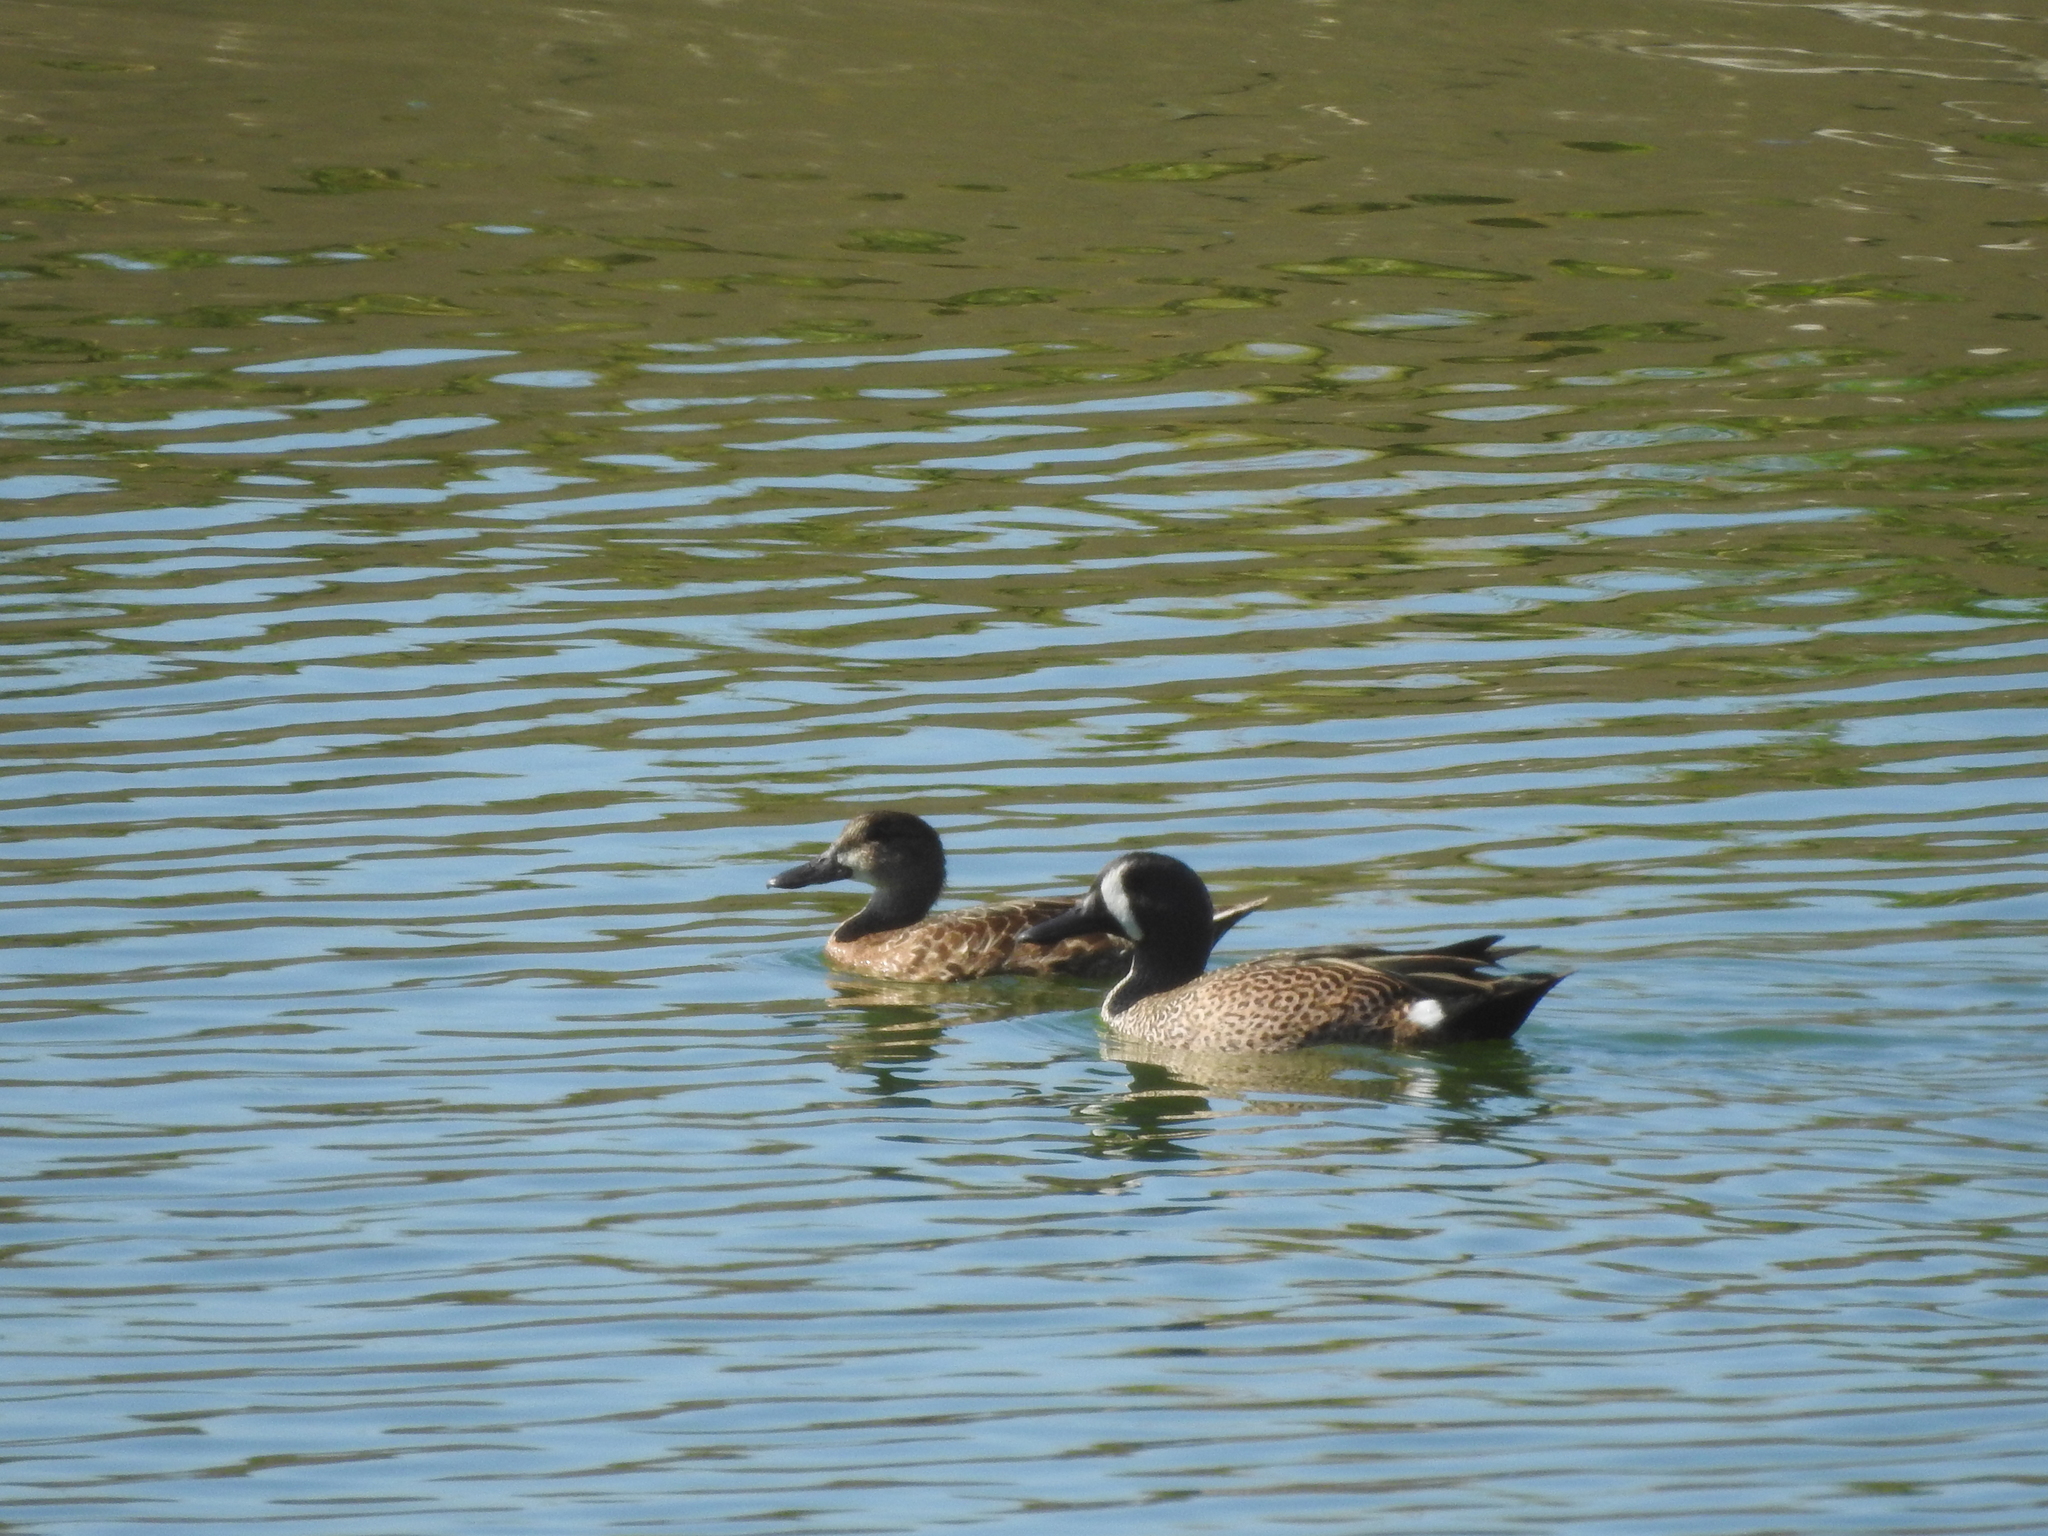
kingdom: Animalia
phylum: Chordata
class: Aves
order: Anseriformes
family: Anatidae
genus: Spatula
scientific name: Spatula discors
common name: Blue-winged teal
